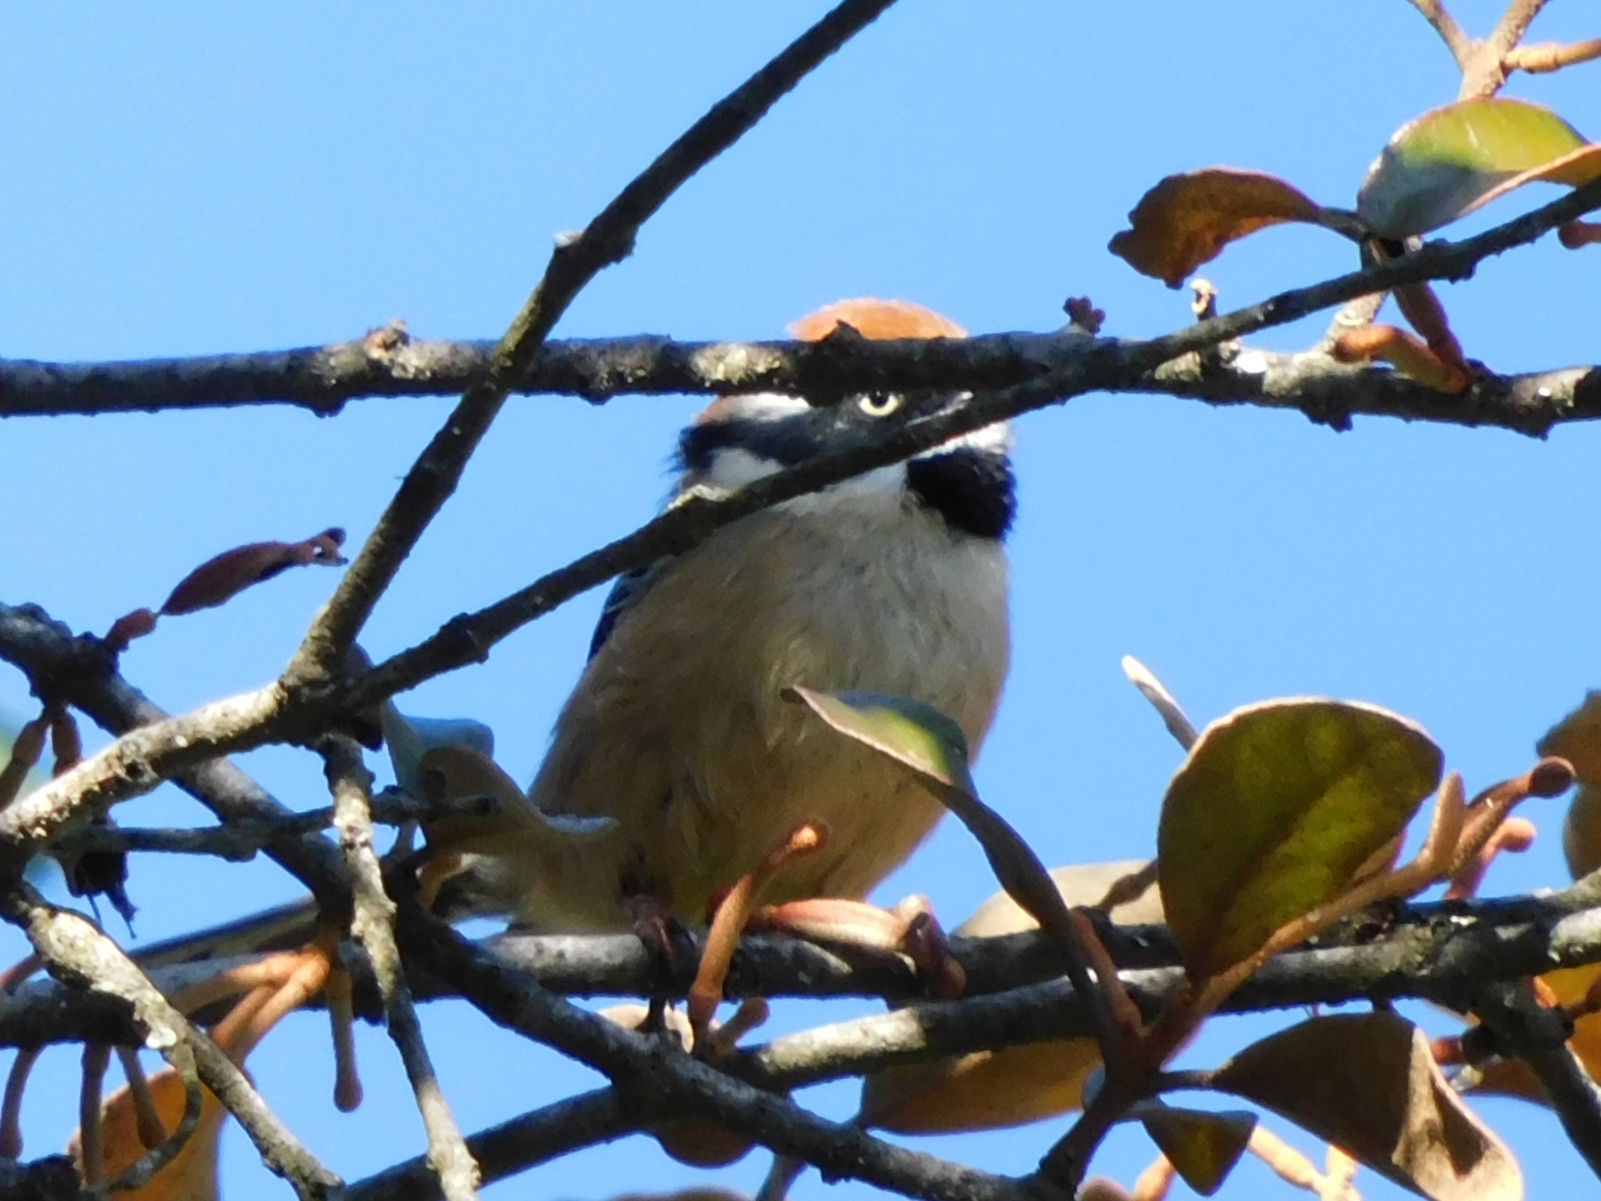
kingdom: Animalia
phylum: Chordata
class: Aves
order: Passeriformes
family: Aegithalidae
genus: Aegithalos
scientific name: Aegithalos concinnus
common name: Black-throated bushtit
